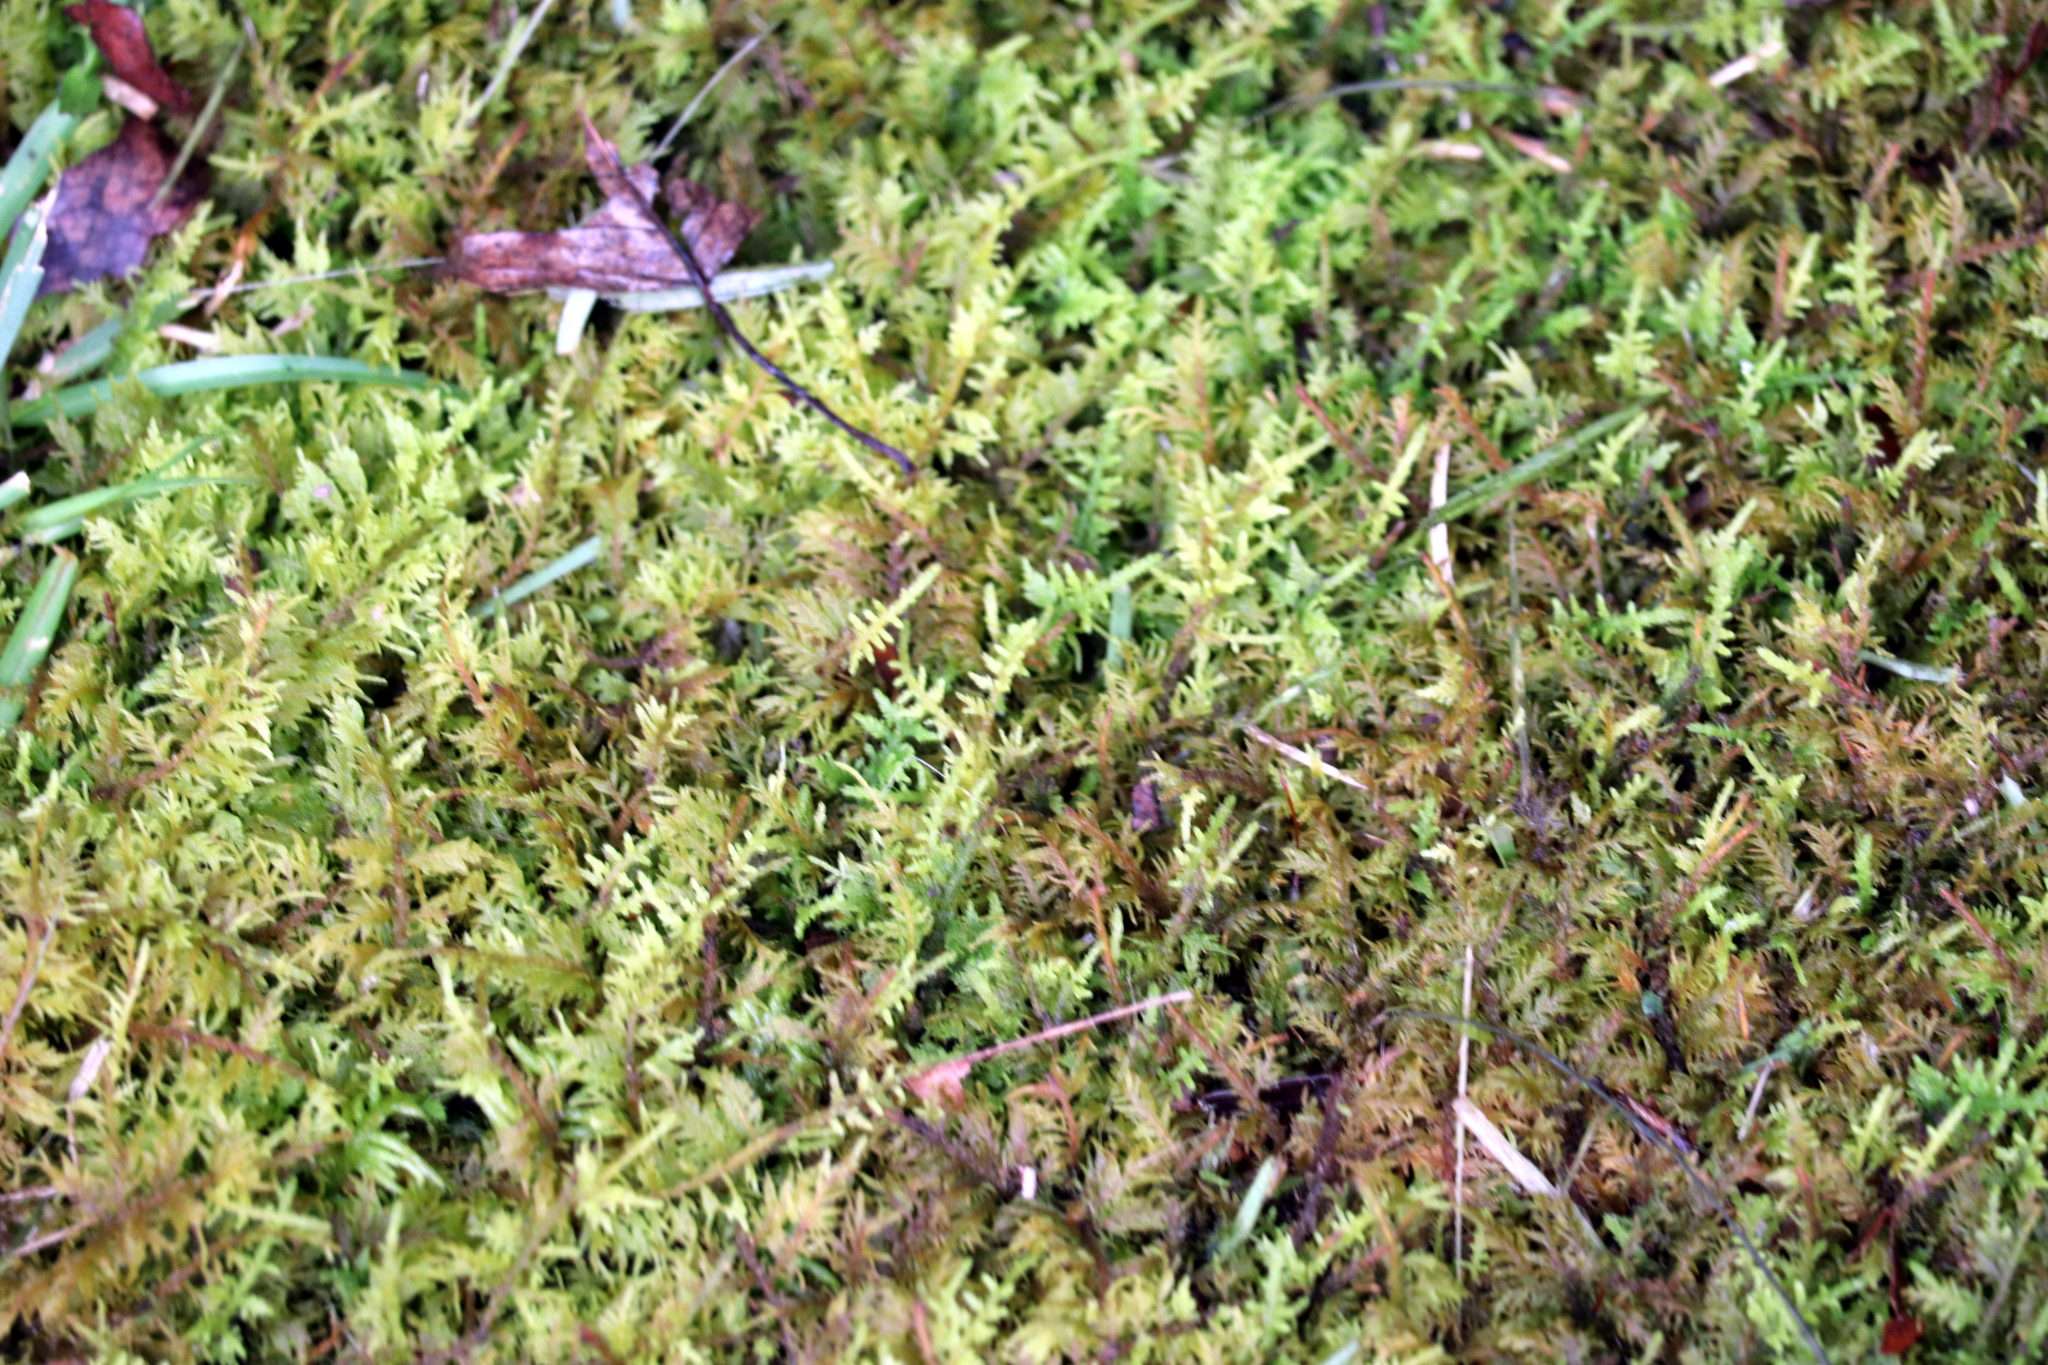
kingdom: Plantae
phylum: Bryophyta
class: Bryopsida
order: Hypnales
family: Thuidiaceae
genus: Thuidium
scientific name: Thuidium delicatulum
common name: Delicate fern moss
